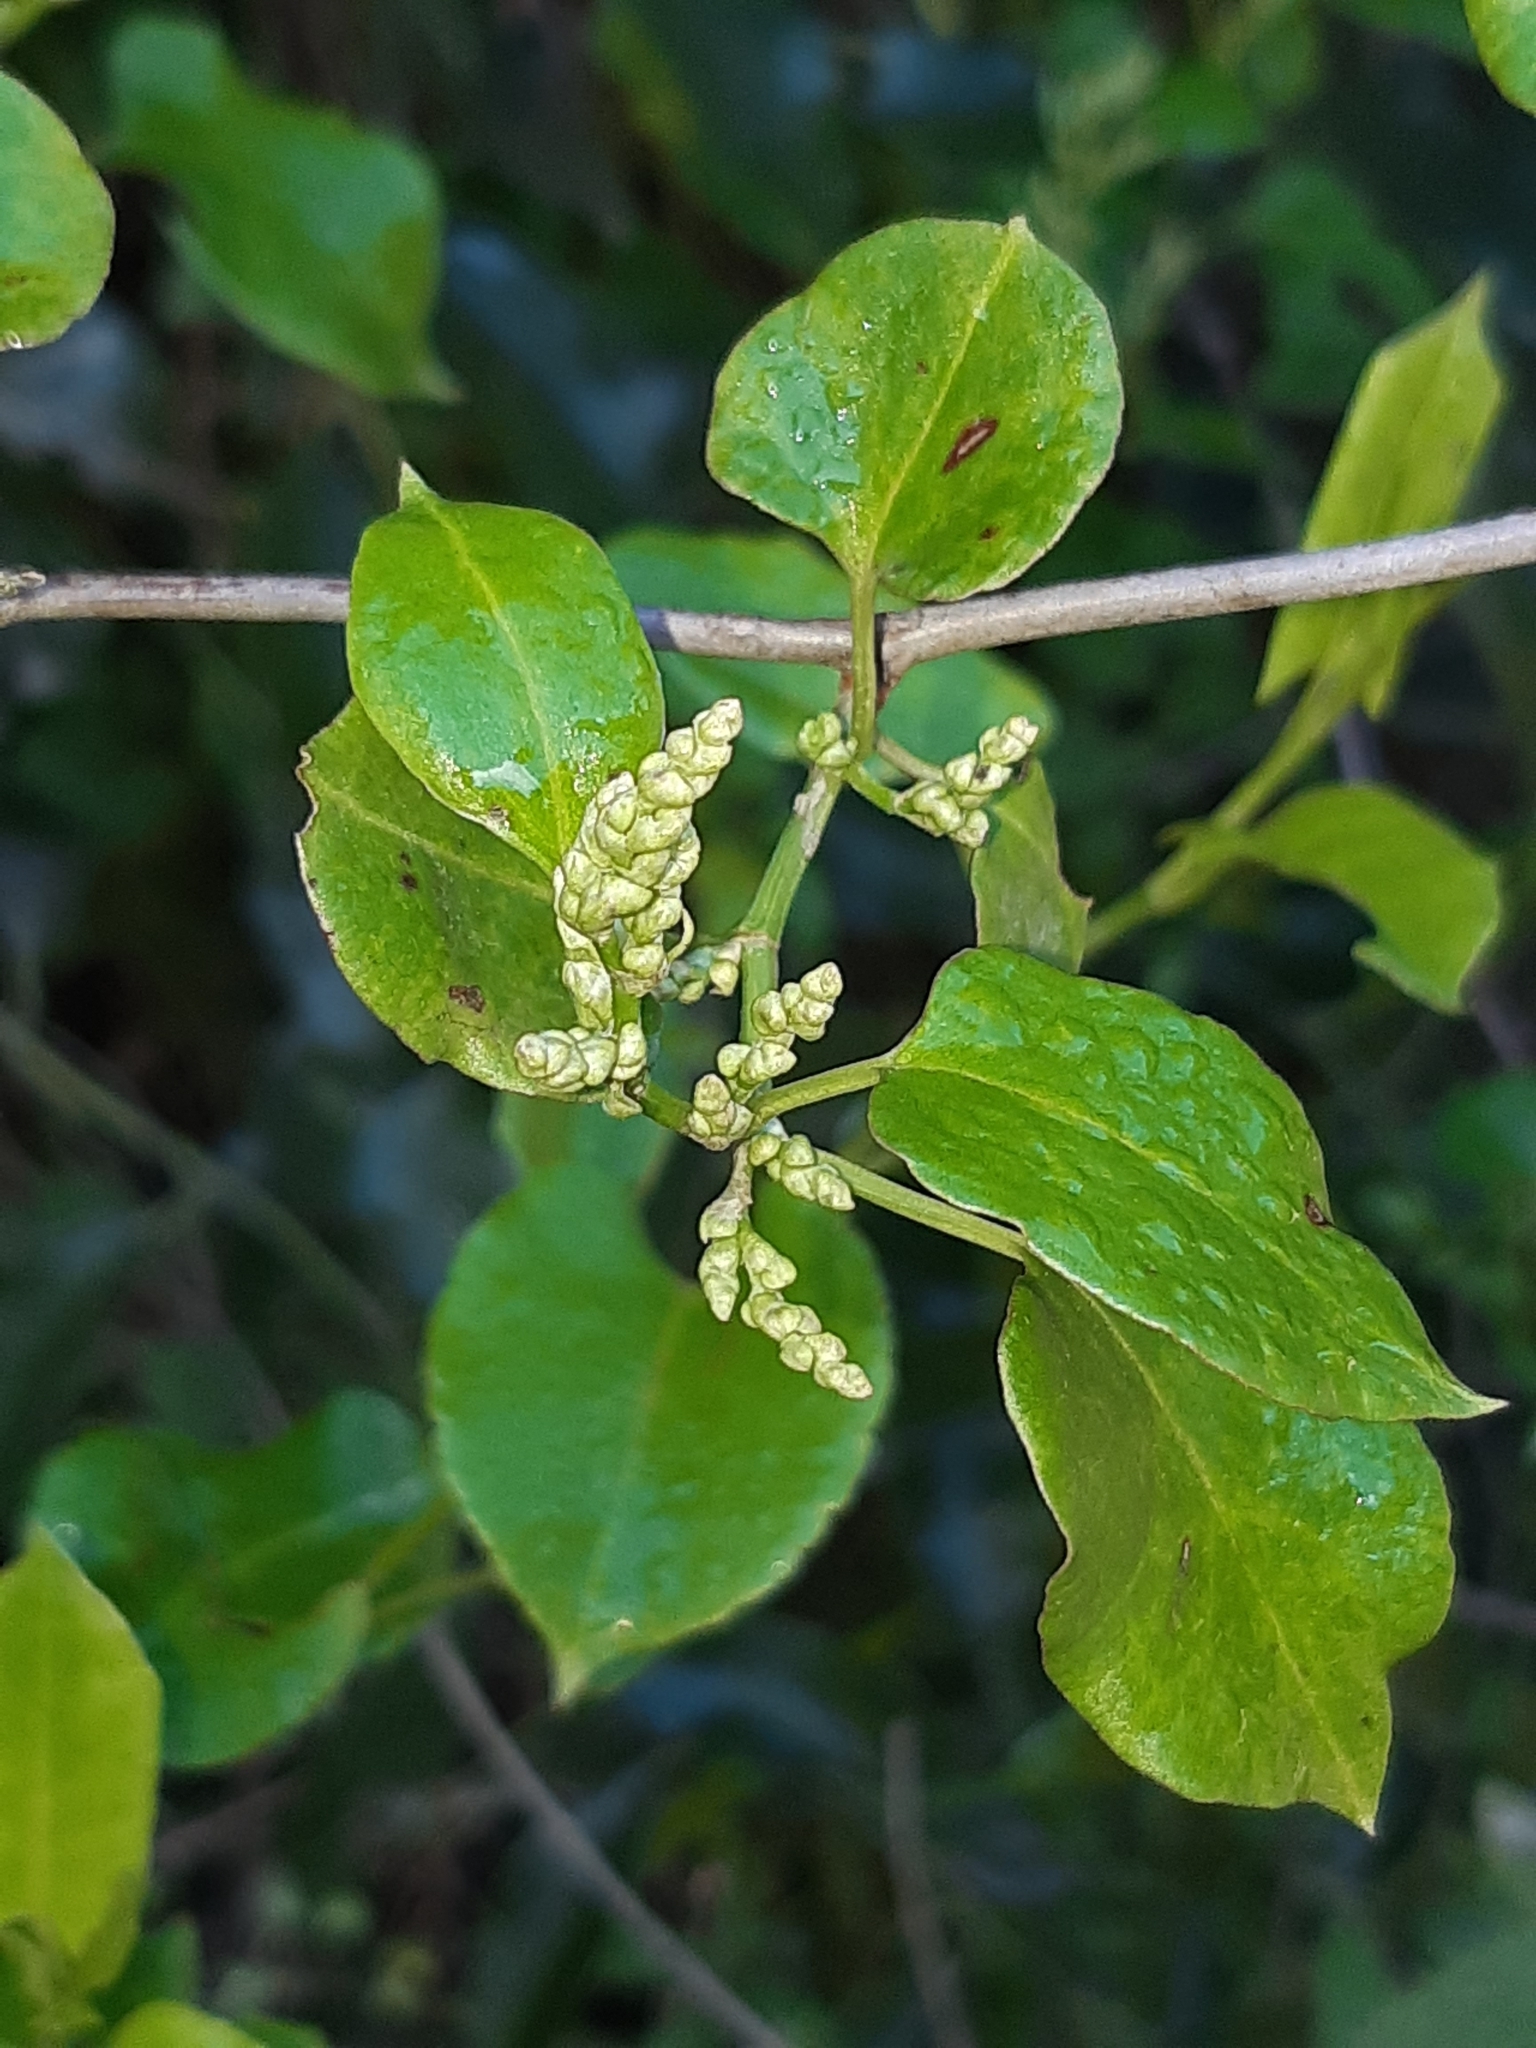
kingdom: Plantae
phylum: Tracheophyta
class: Magnoliopsida
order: Caryophyllales
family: Polygonaceae
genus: Muehlenbeckia
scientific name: Muehlenbeckia australis
